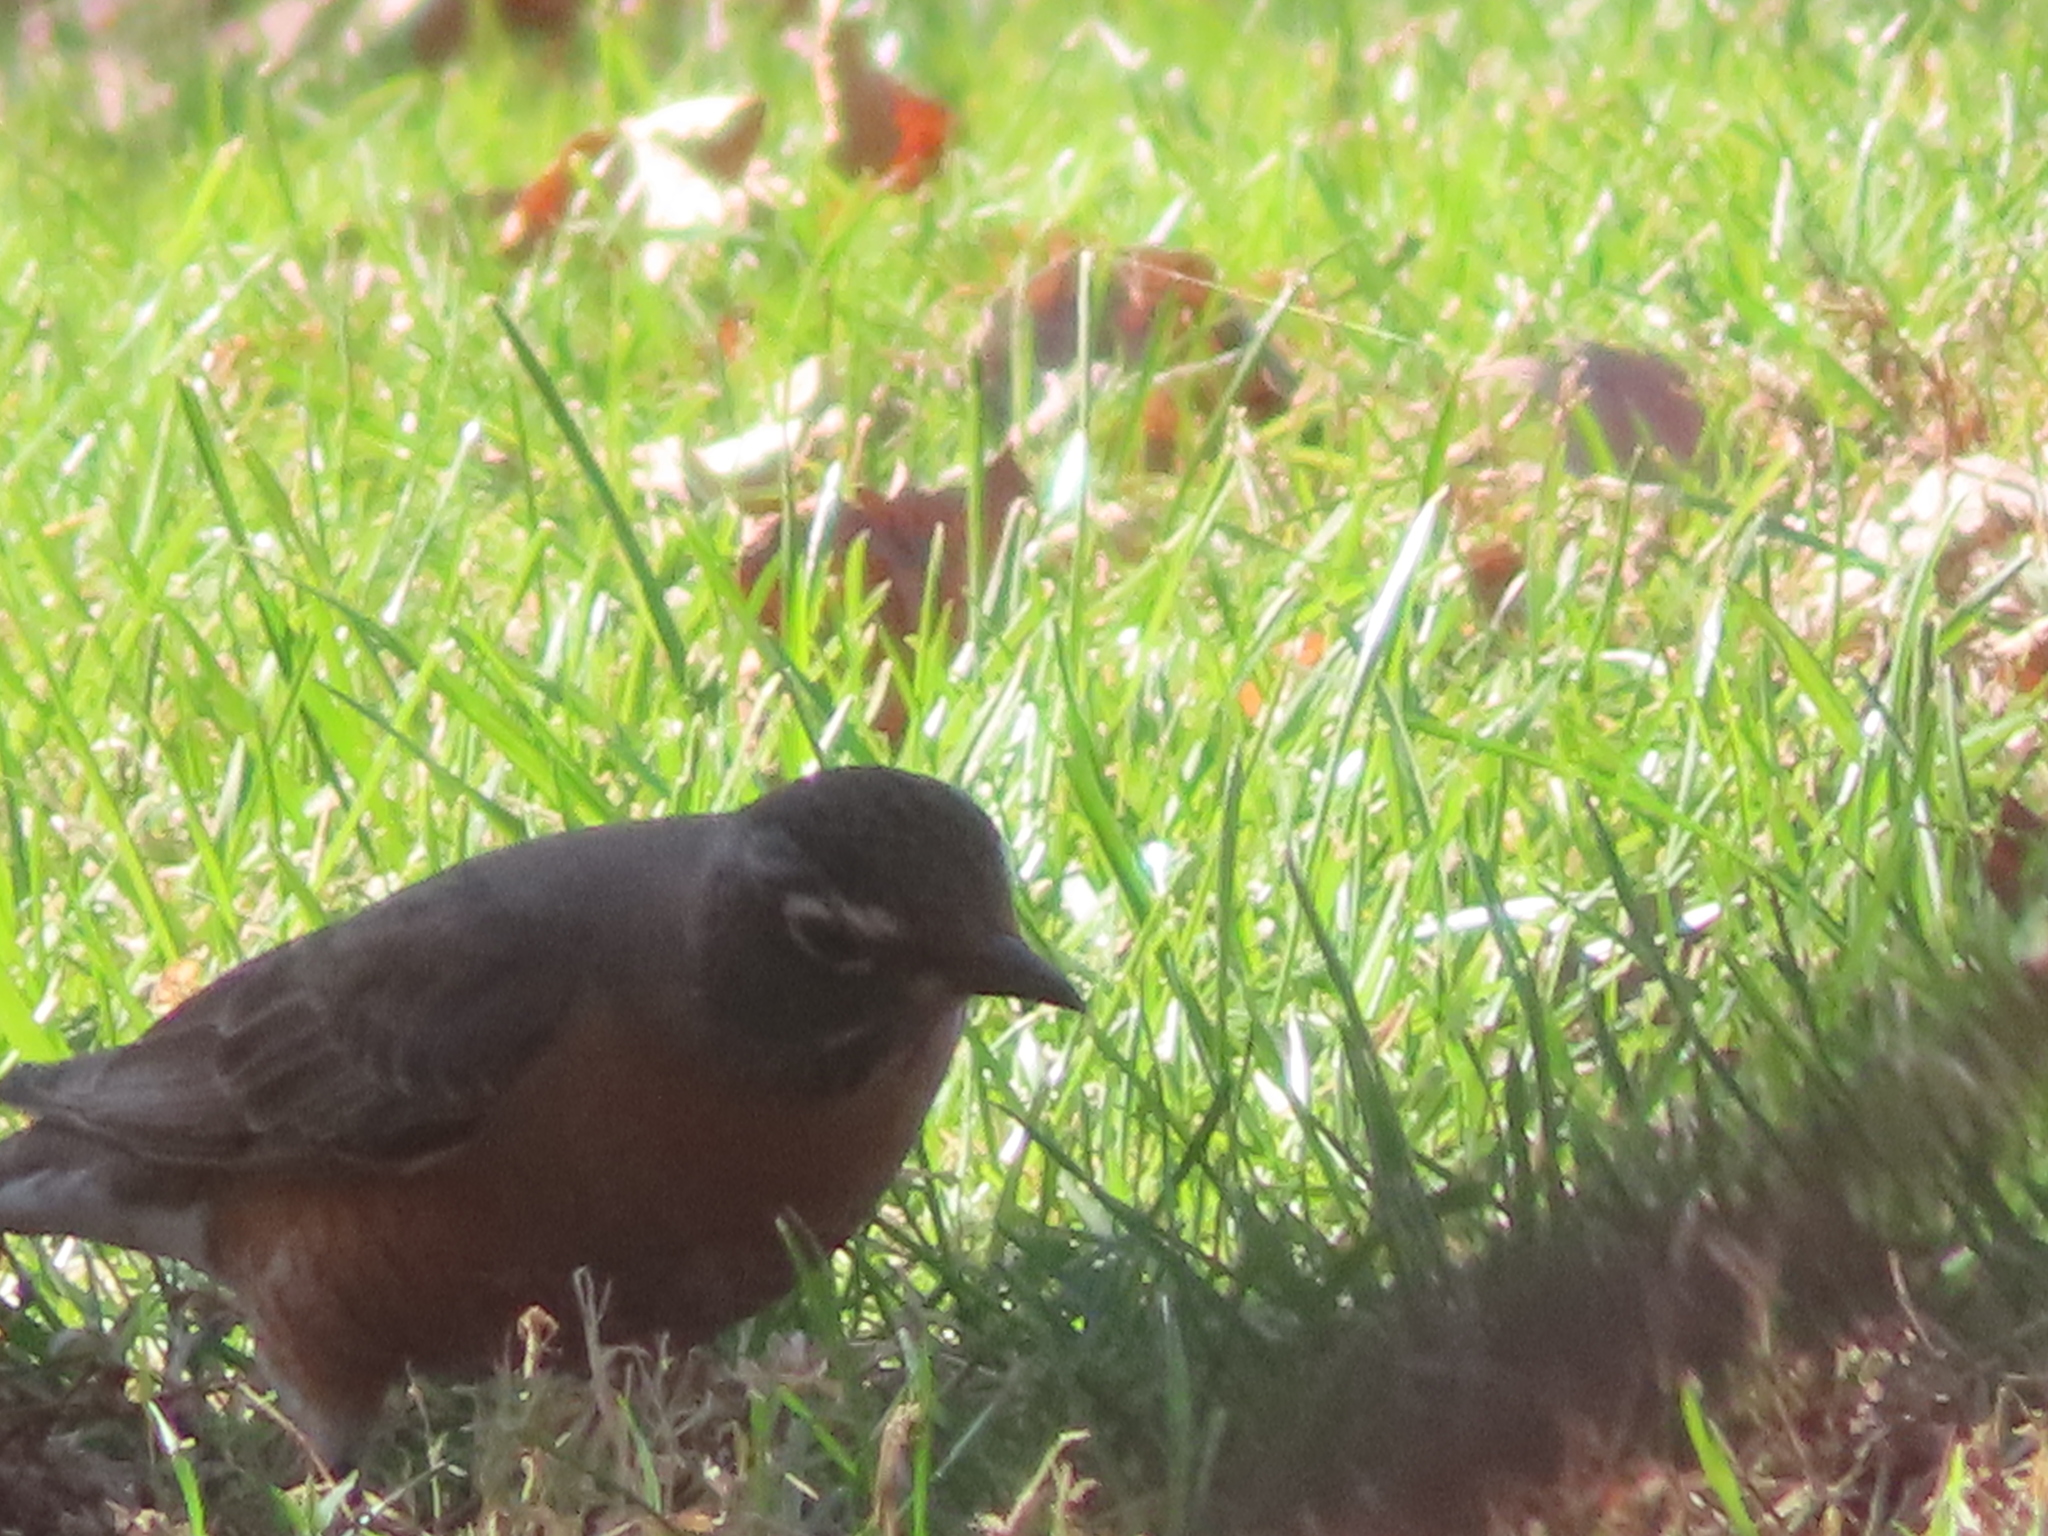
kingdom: Animalia
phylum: Chordata
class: Aves
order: Passeriformes
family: Turdidae
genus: Turdus
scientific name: Turdus migratorius
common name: American robin
